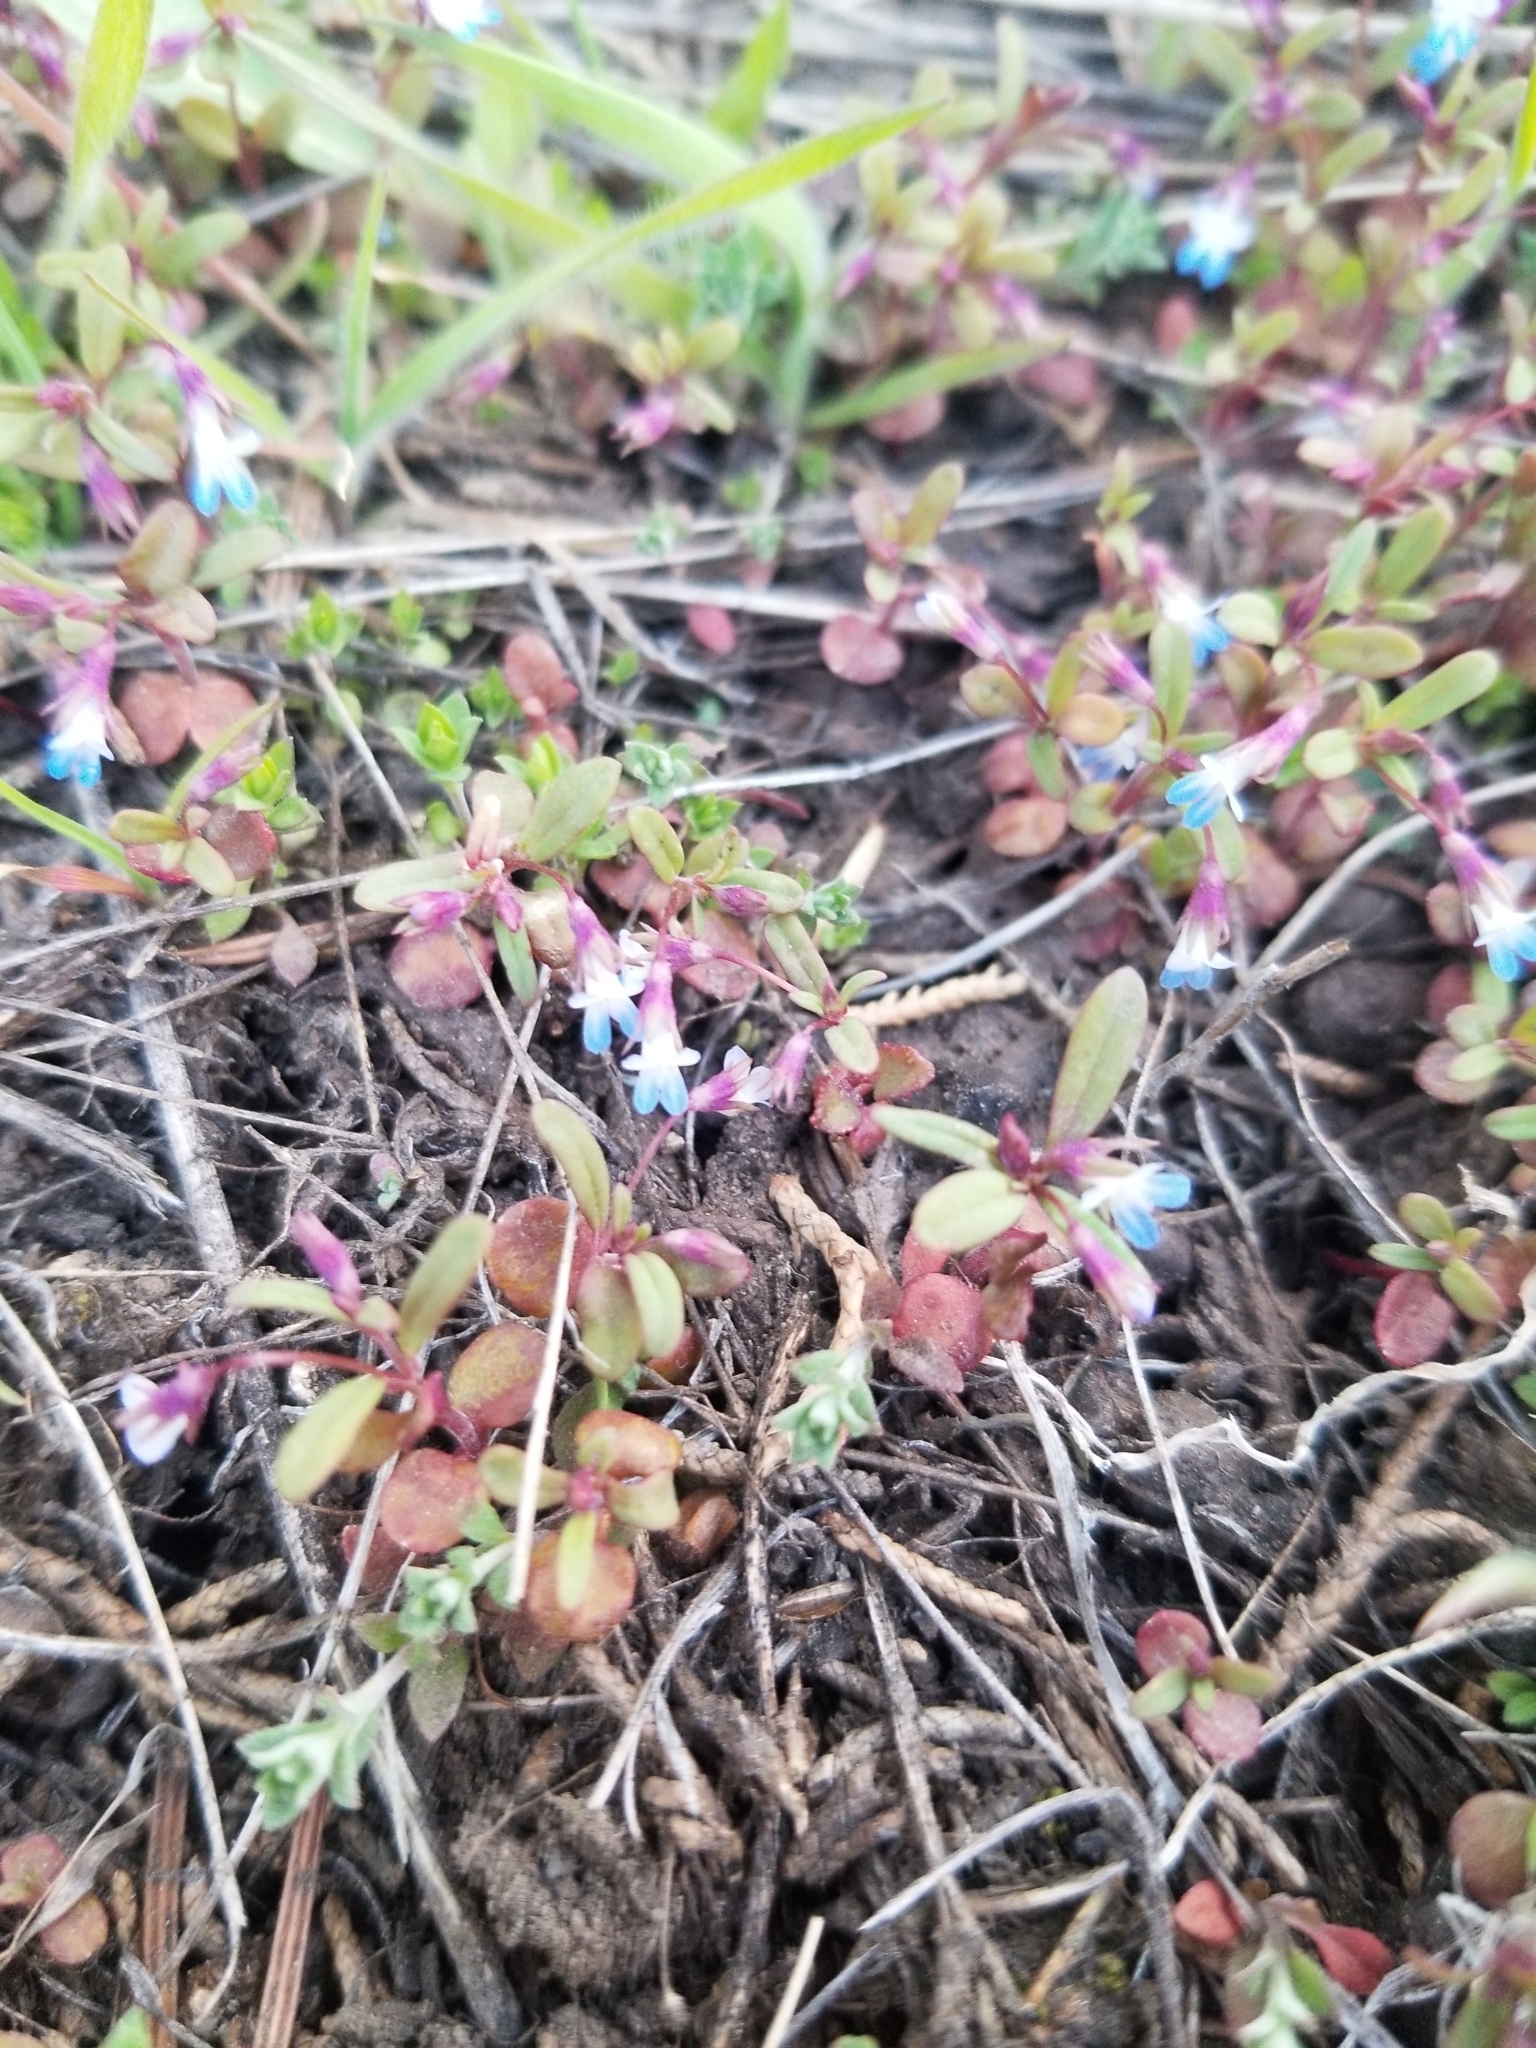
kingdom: Plantae
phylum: Tracheophyta
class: Magnoliopsida
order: Lamiales
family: Plantaginaceae
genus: Collinsia
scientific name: Collinsia parviflora
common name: Blue-lips
